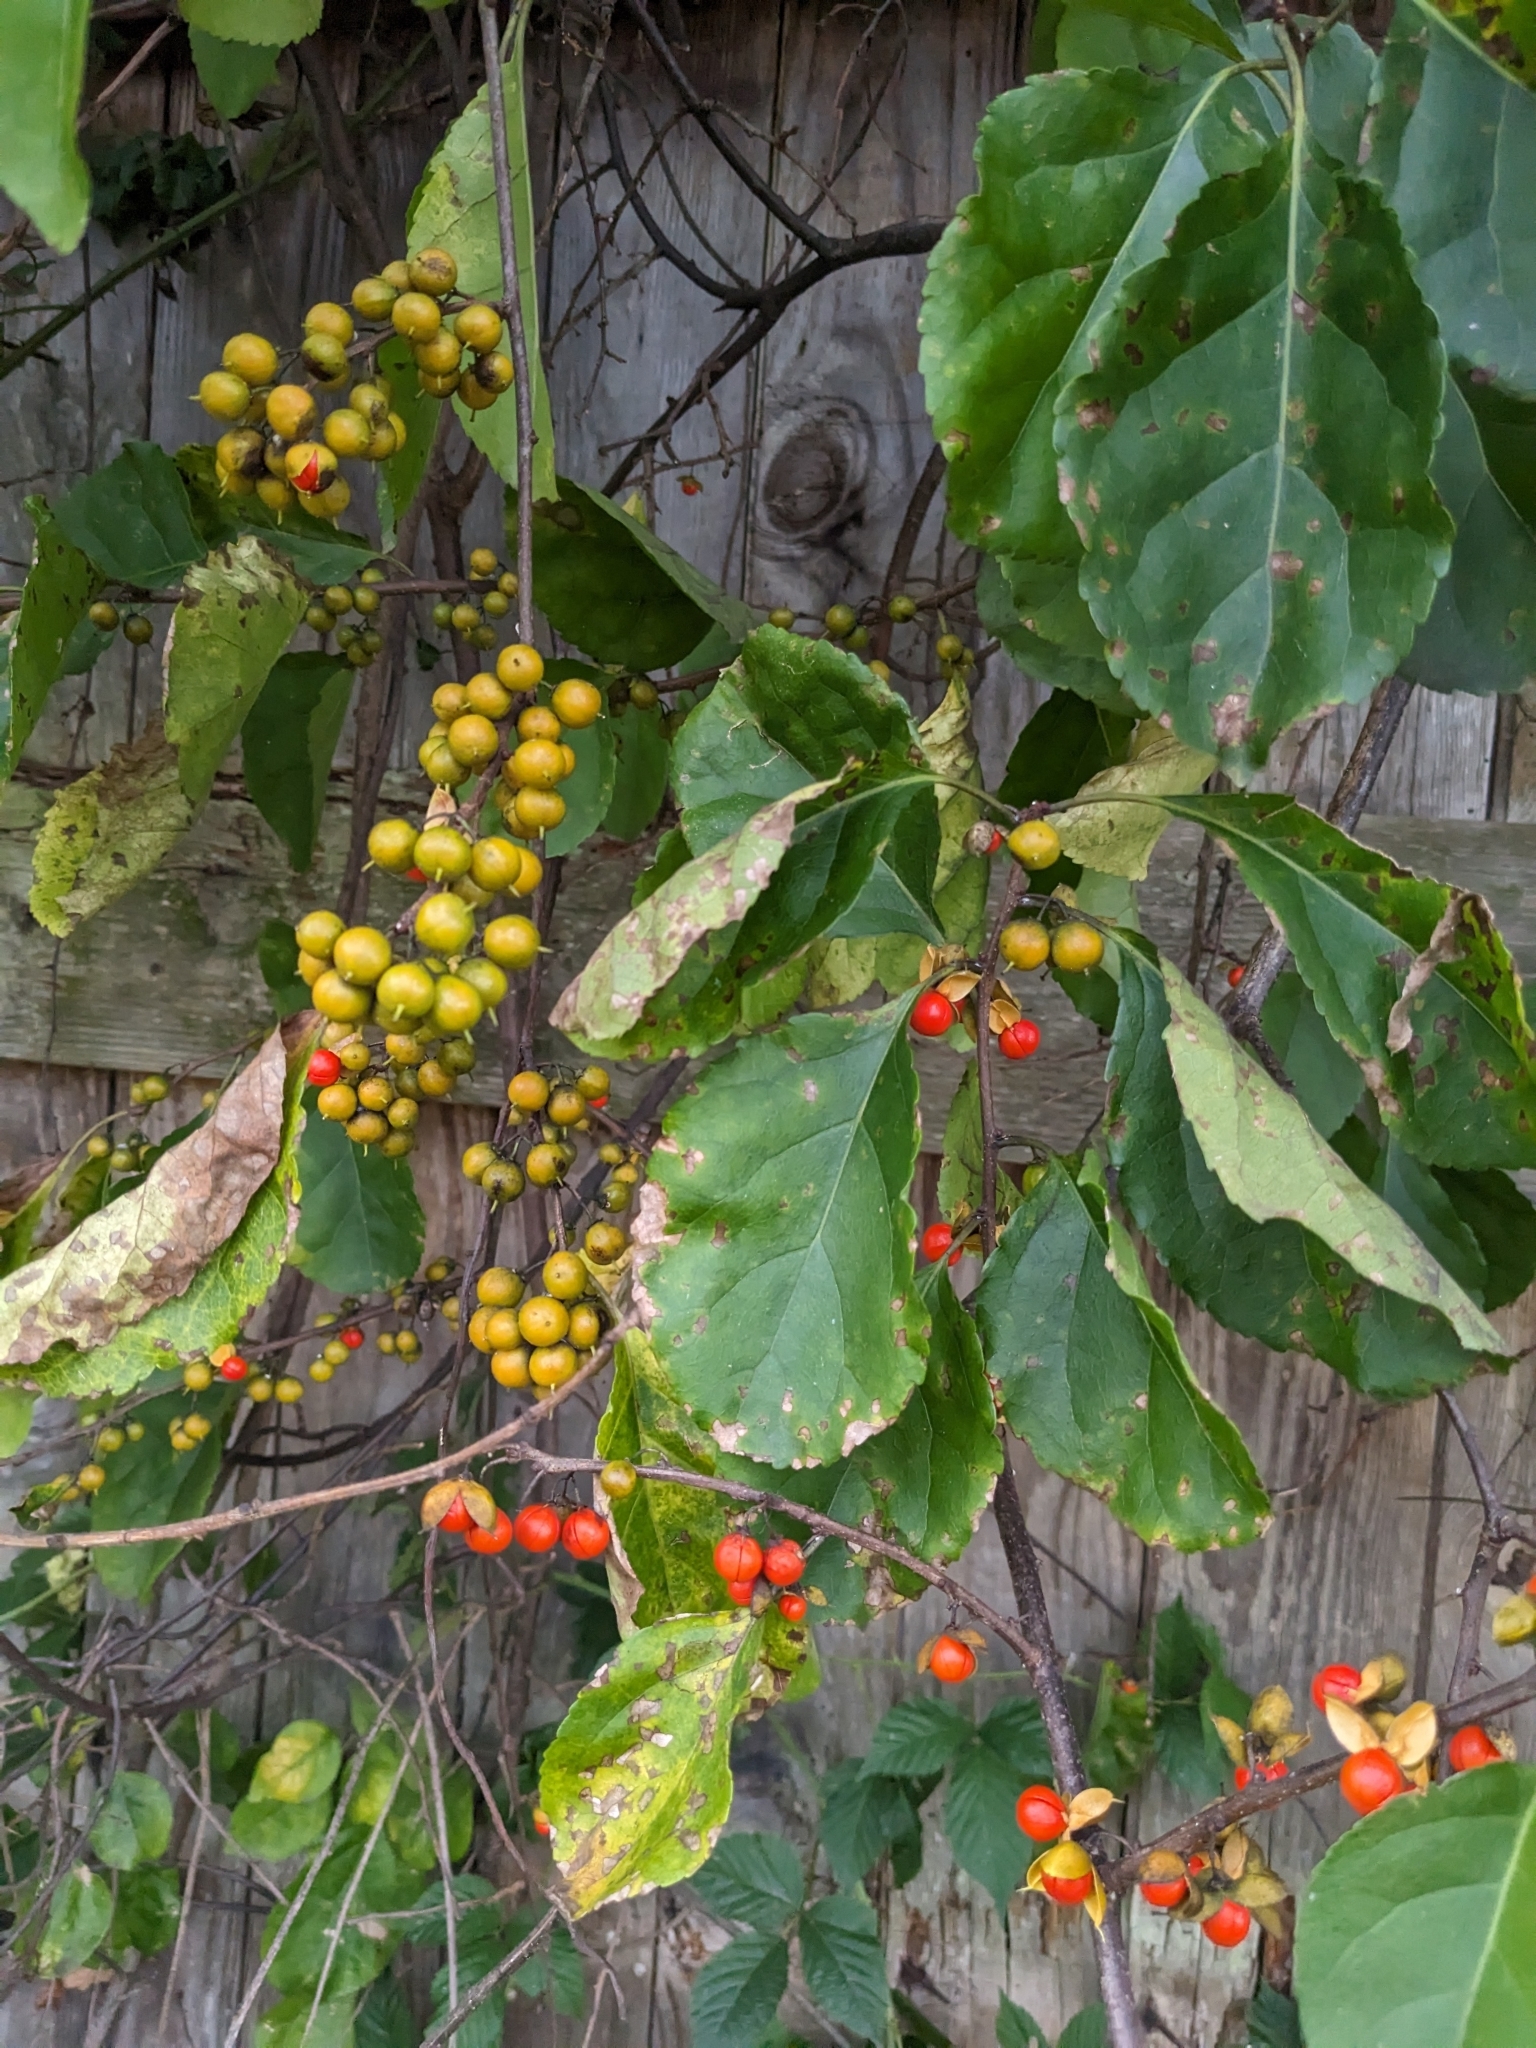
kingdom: Plantae
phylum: Tracheophyta
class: Magnoliopsida
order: Celastrales
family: Celastraceae
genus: Celastrus
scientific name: Celastrus orbiculatus
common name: Oriental bittersweet
